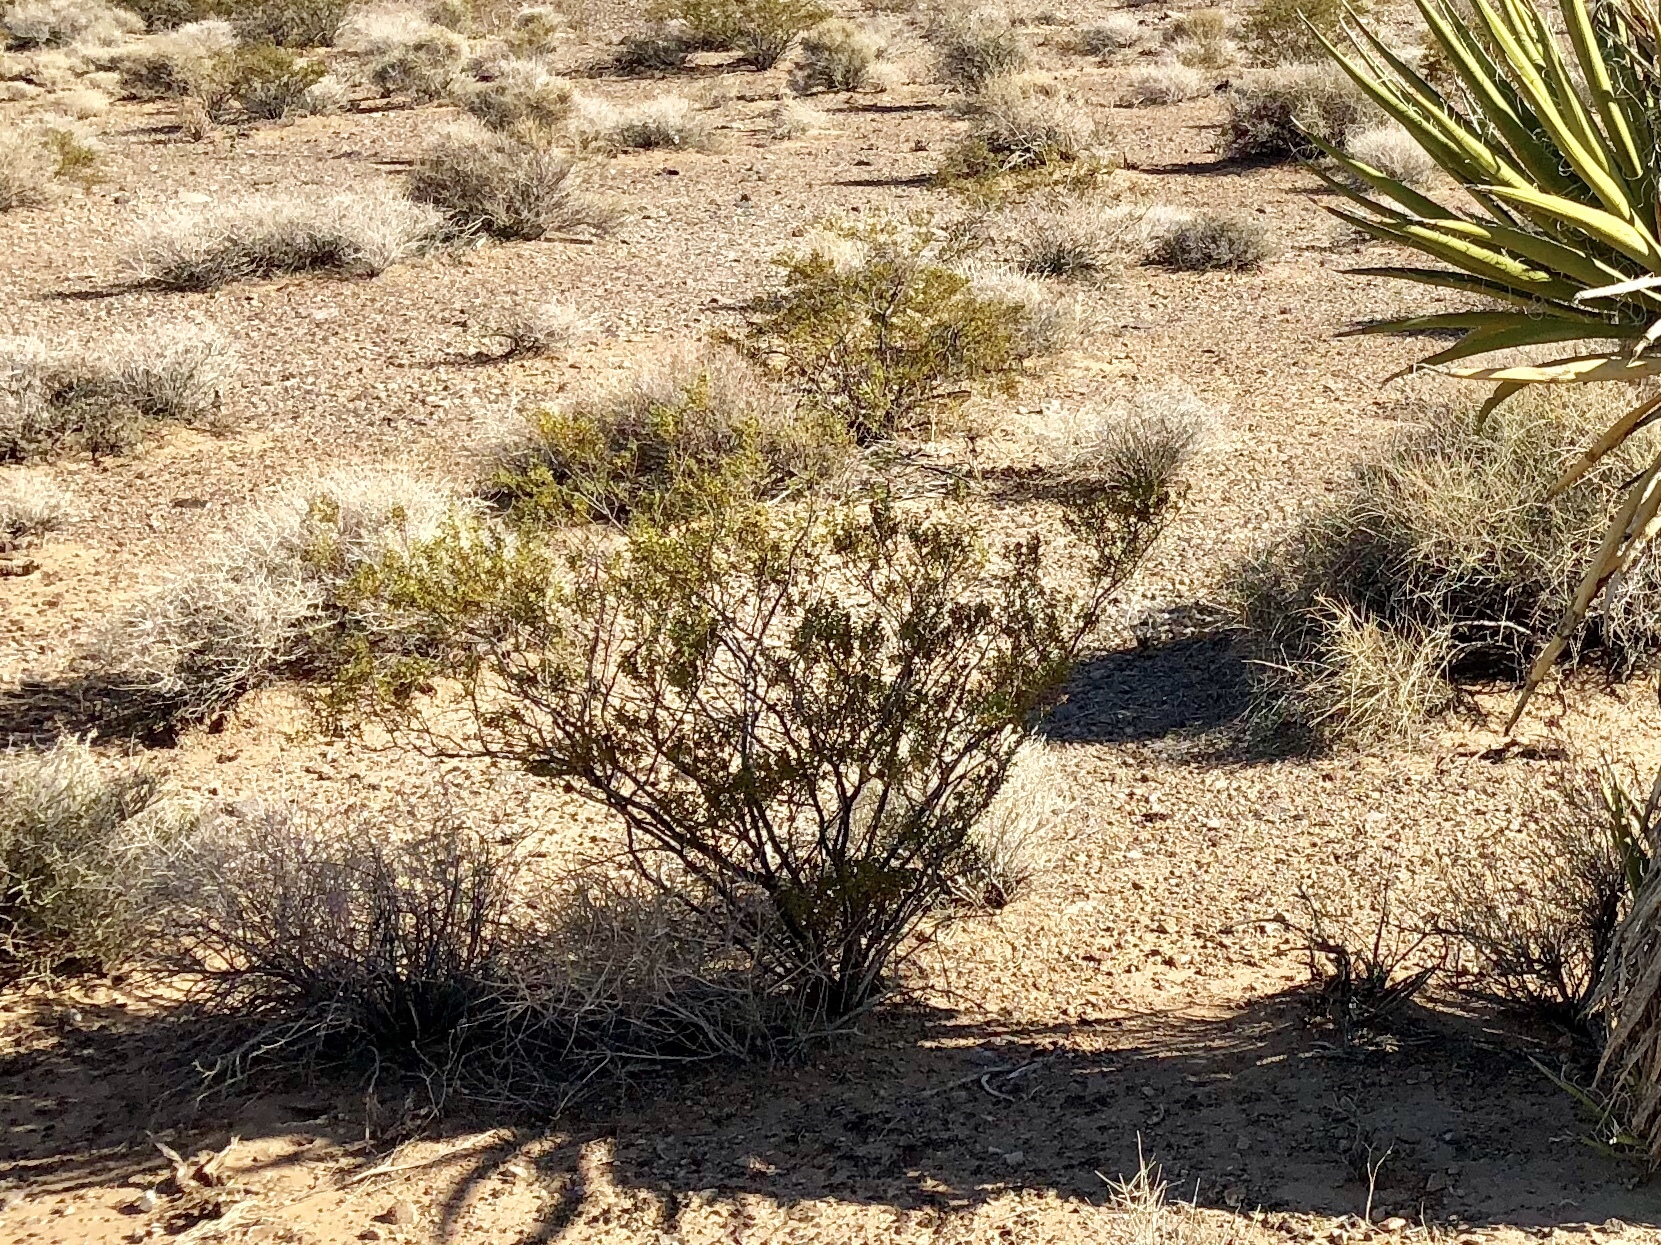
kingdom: Plantae
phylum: Tracheophyta
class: Magnoliopsida
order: Zygophyllales
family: Zygophyllaceae
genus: Larrea
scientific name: Larrea tridentata
